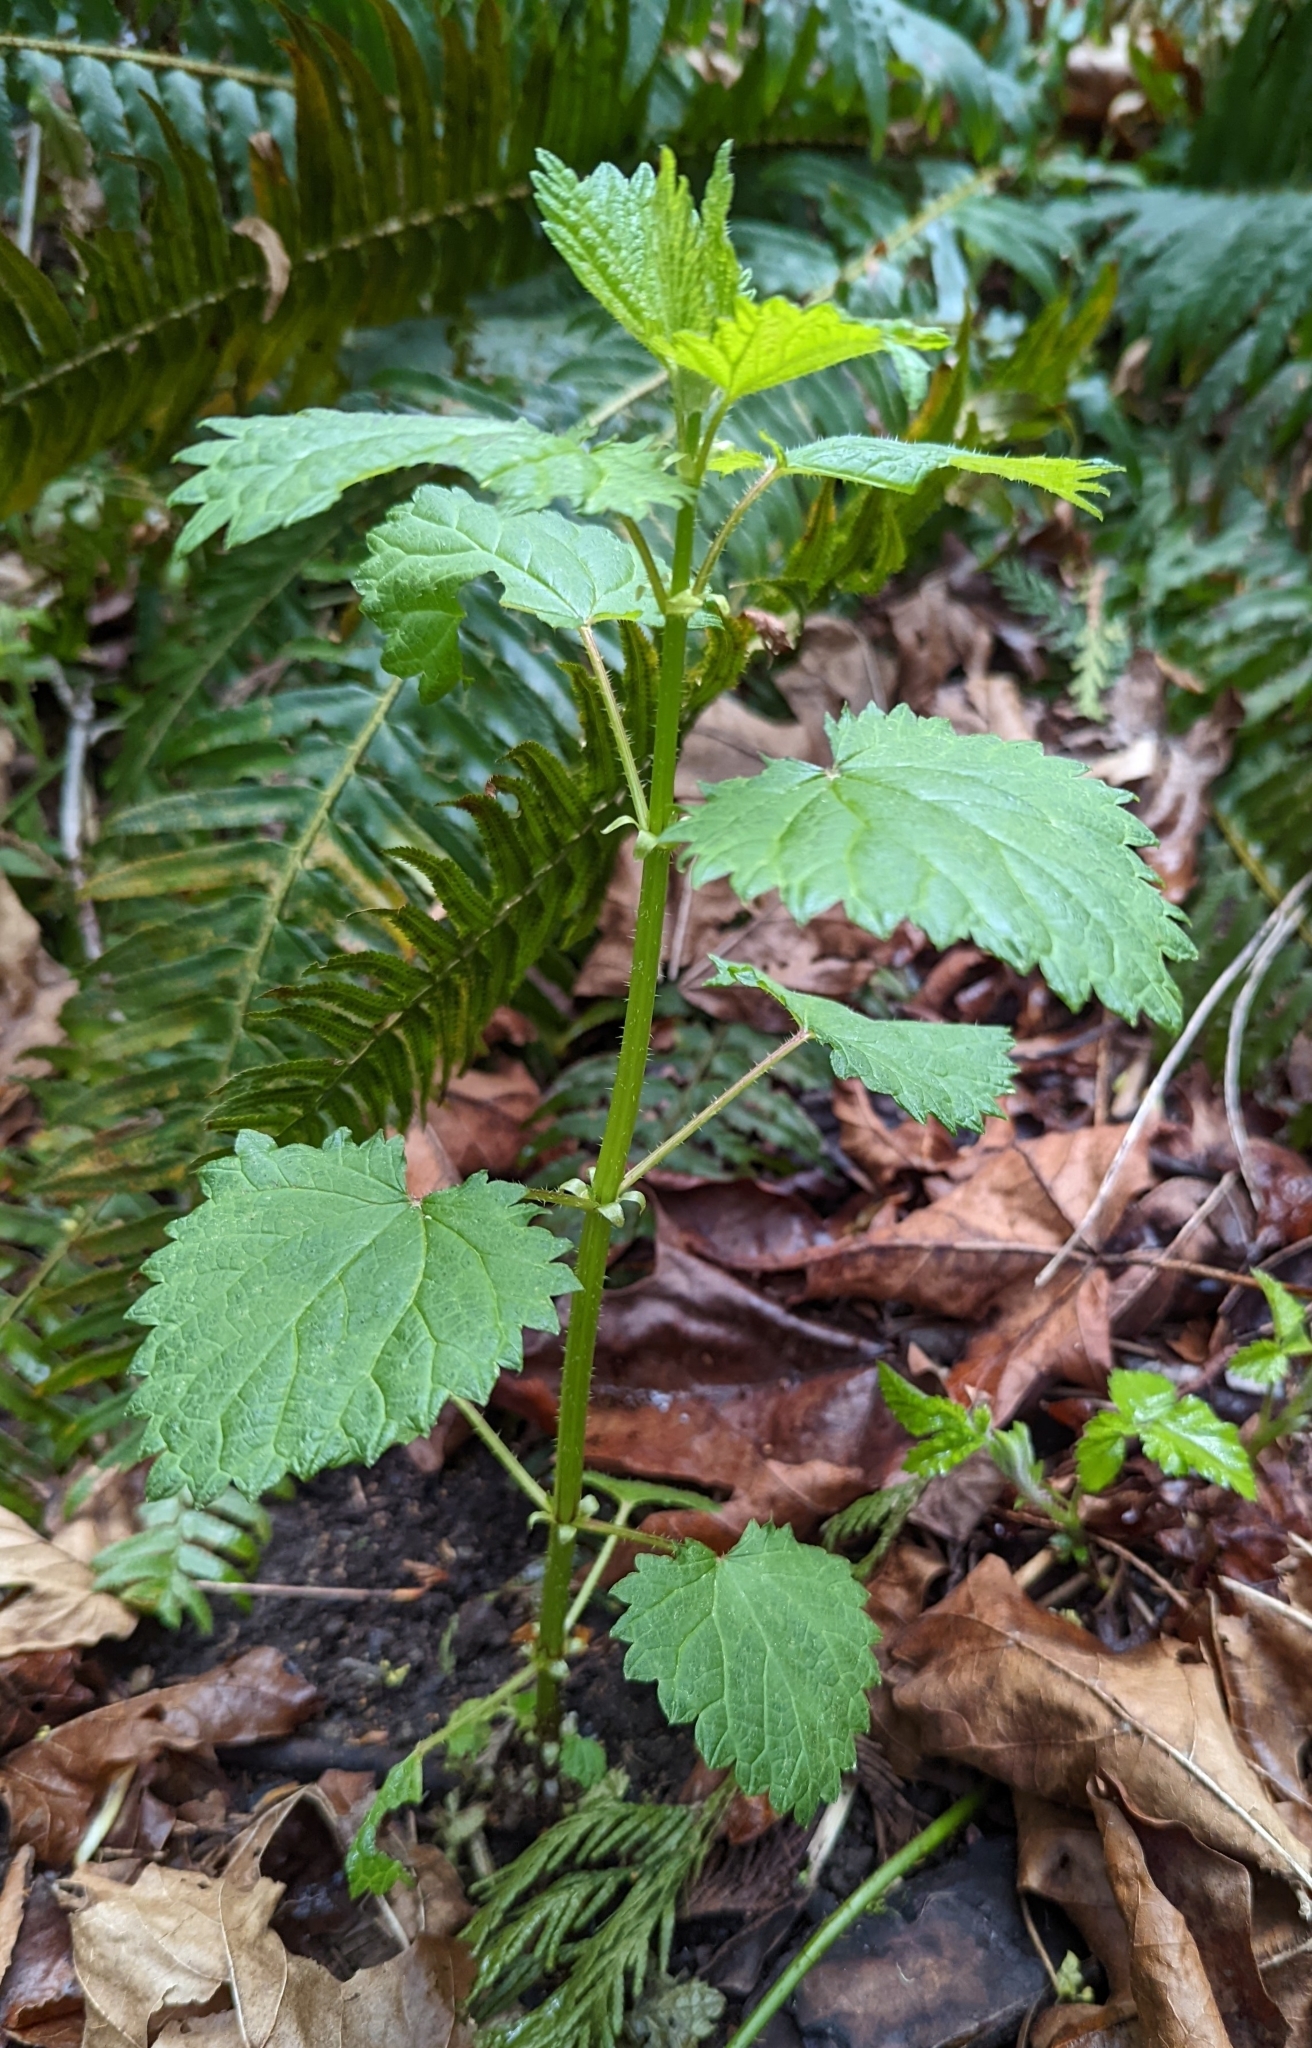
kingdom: Plantae
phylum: Tracheophyta
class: Magnoliopsida
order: Rosales
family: Urticaceae
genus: Urtica
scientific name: Urtica gracilis
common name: Slender stinging nettle
